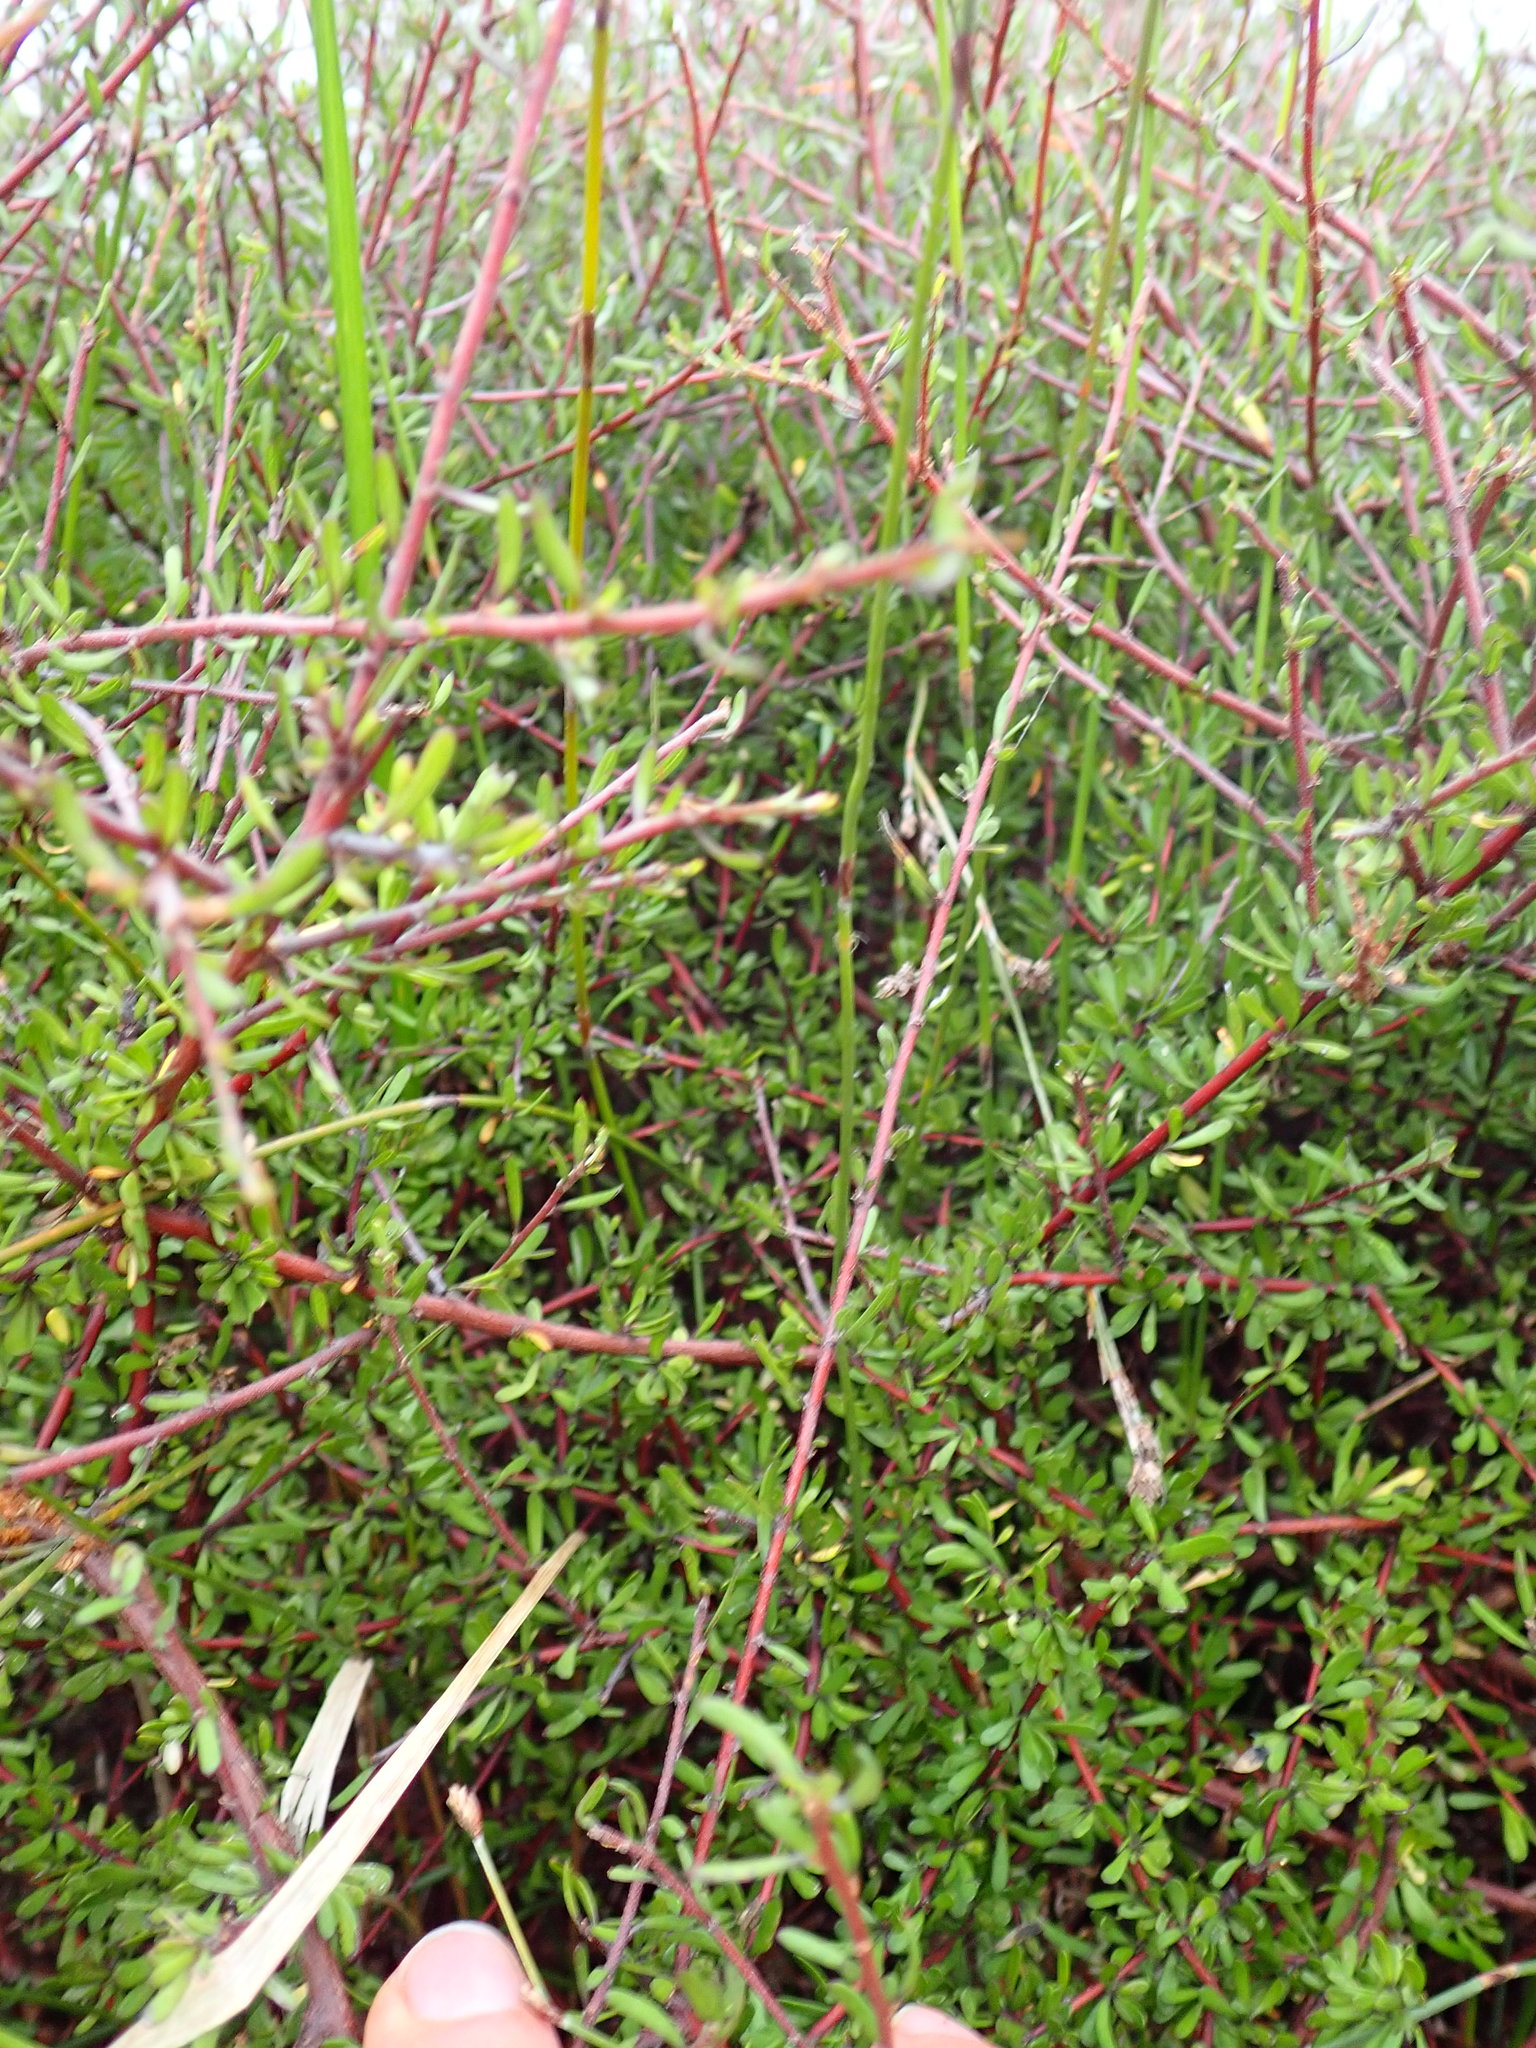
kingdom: Plantae
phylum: Tracheophyta
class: Magnoliopsida
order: Malvales
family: Malvaceae
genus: Plagianthus
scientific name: Plagianthus divaricatus
